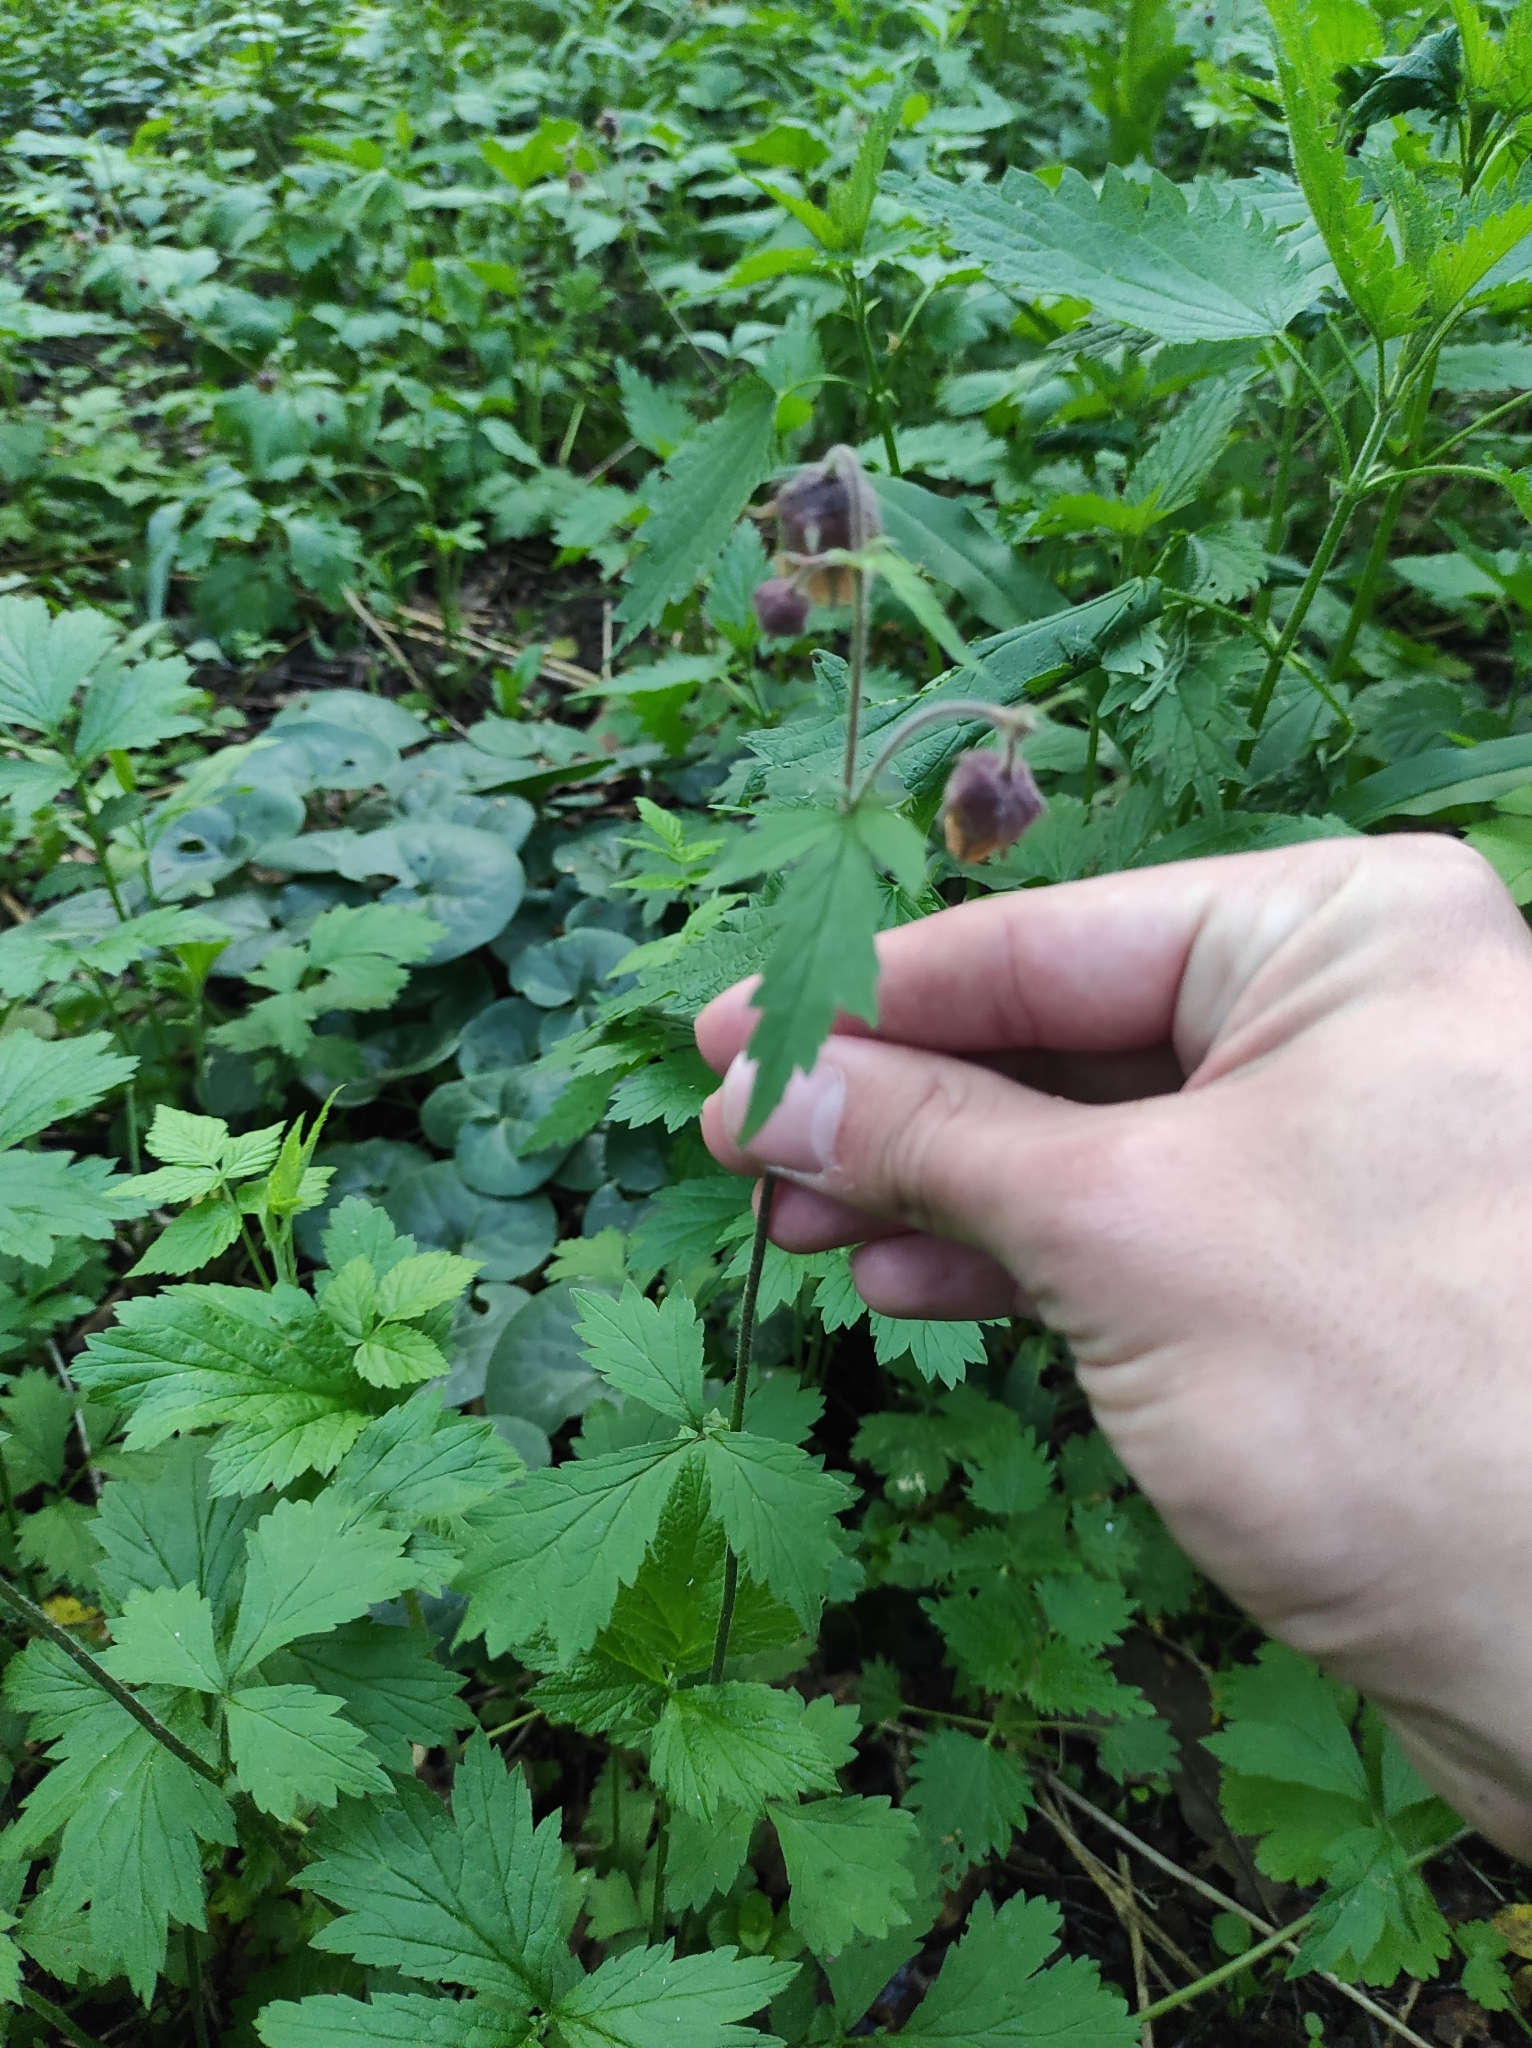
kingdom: Plantae
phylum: Tracheophyta
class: Magnoliopsida
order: Rosales
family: Rosaceae
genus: Geum
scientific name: Geum rivale
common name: Water avens
